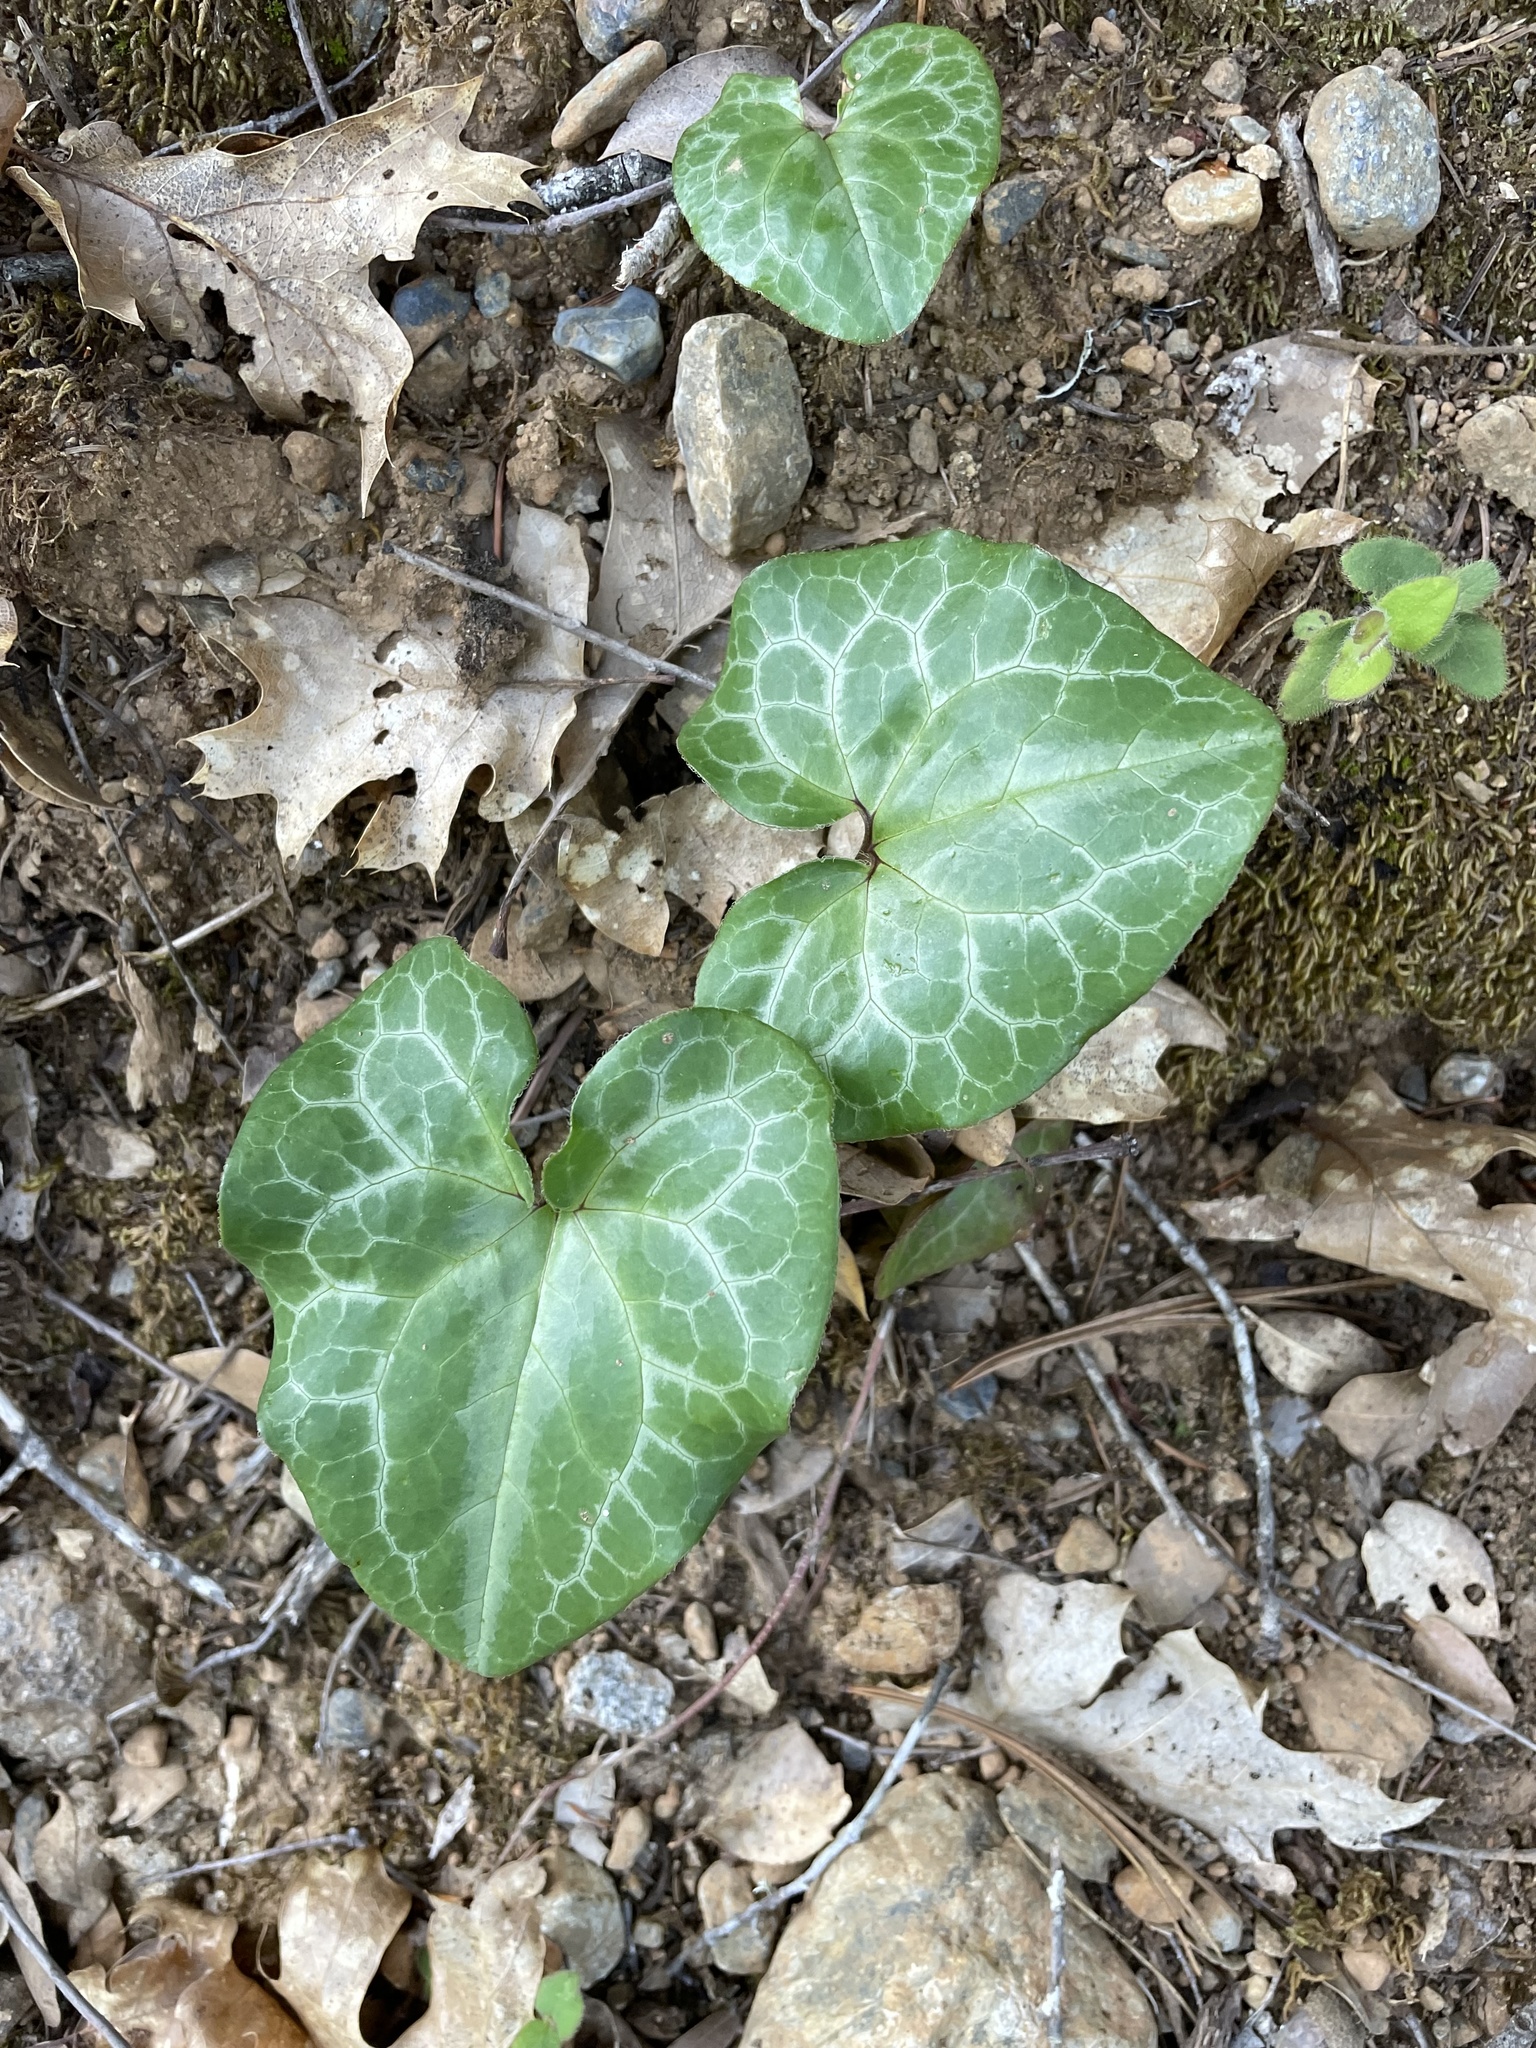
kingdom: Plantae
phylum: Tracheophyta
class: Magnoliopsida
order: Piperales
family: Aristolochiaceae
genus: Asarum
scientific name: Asarum hartwegii
